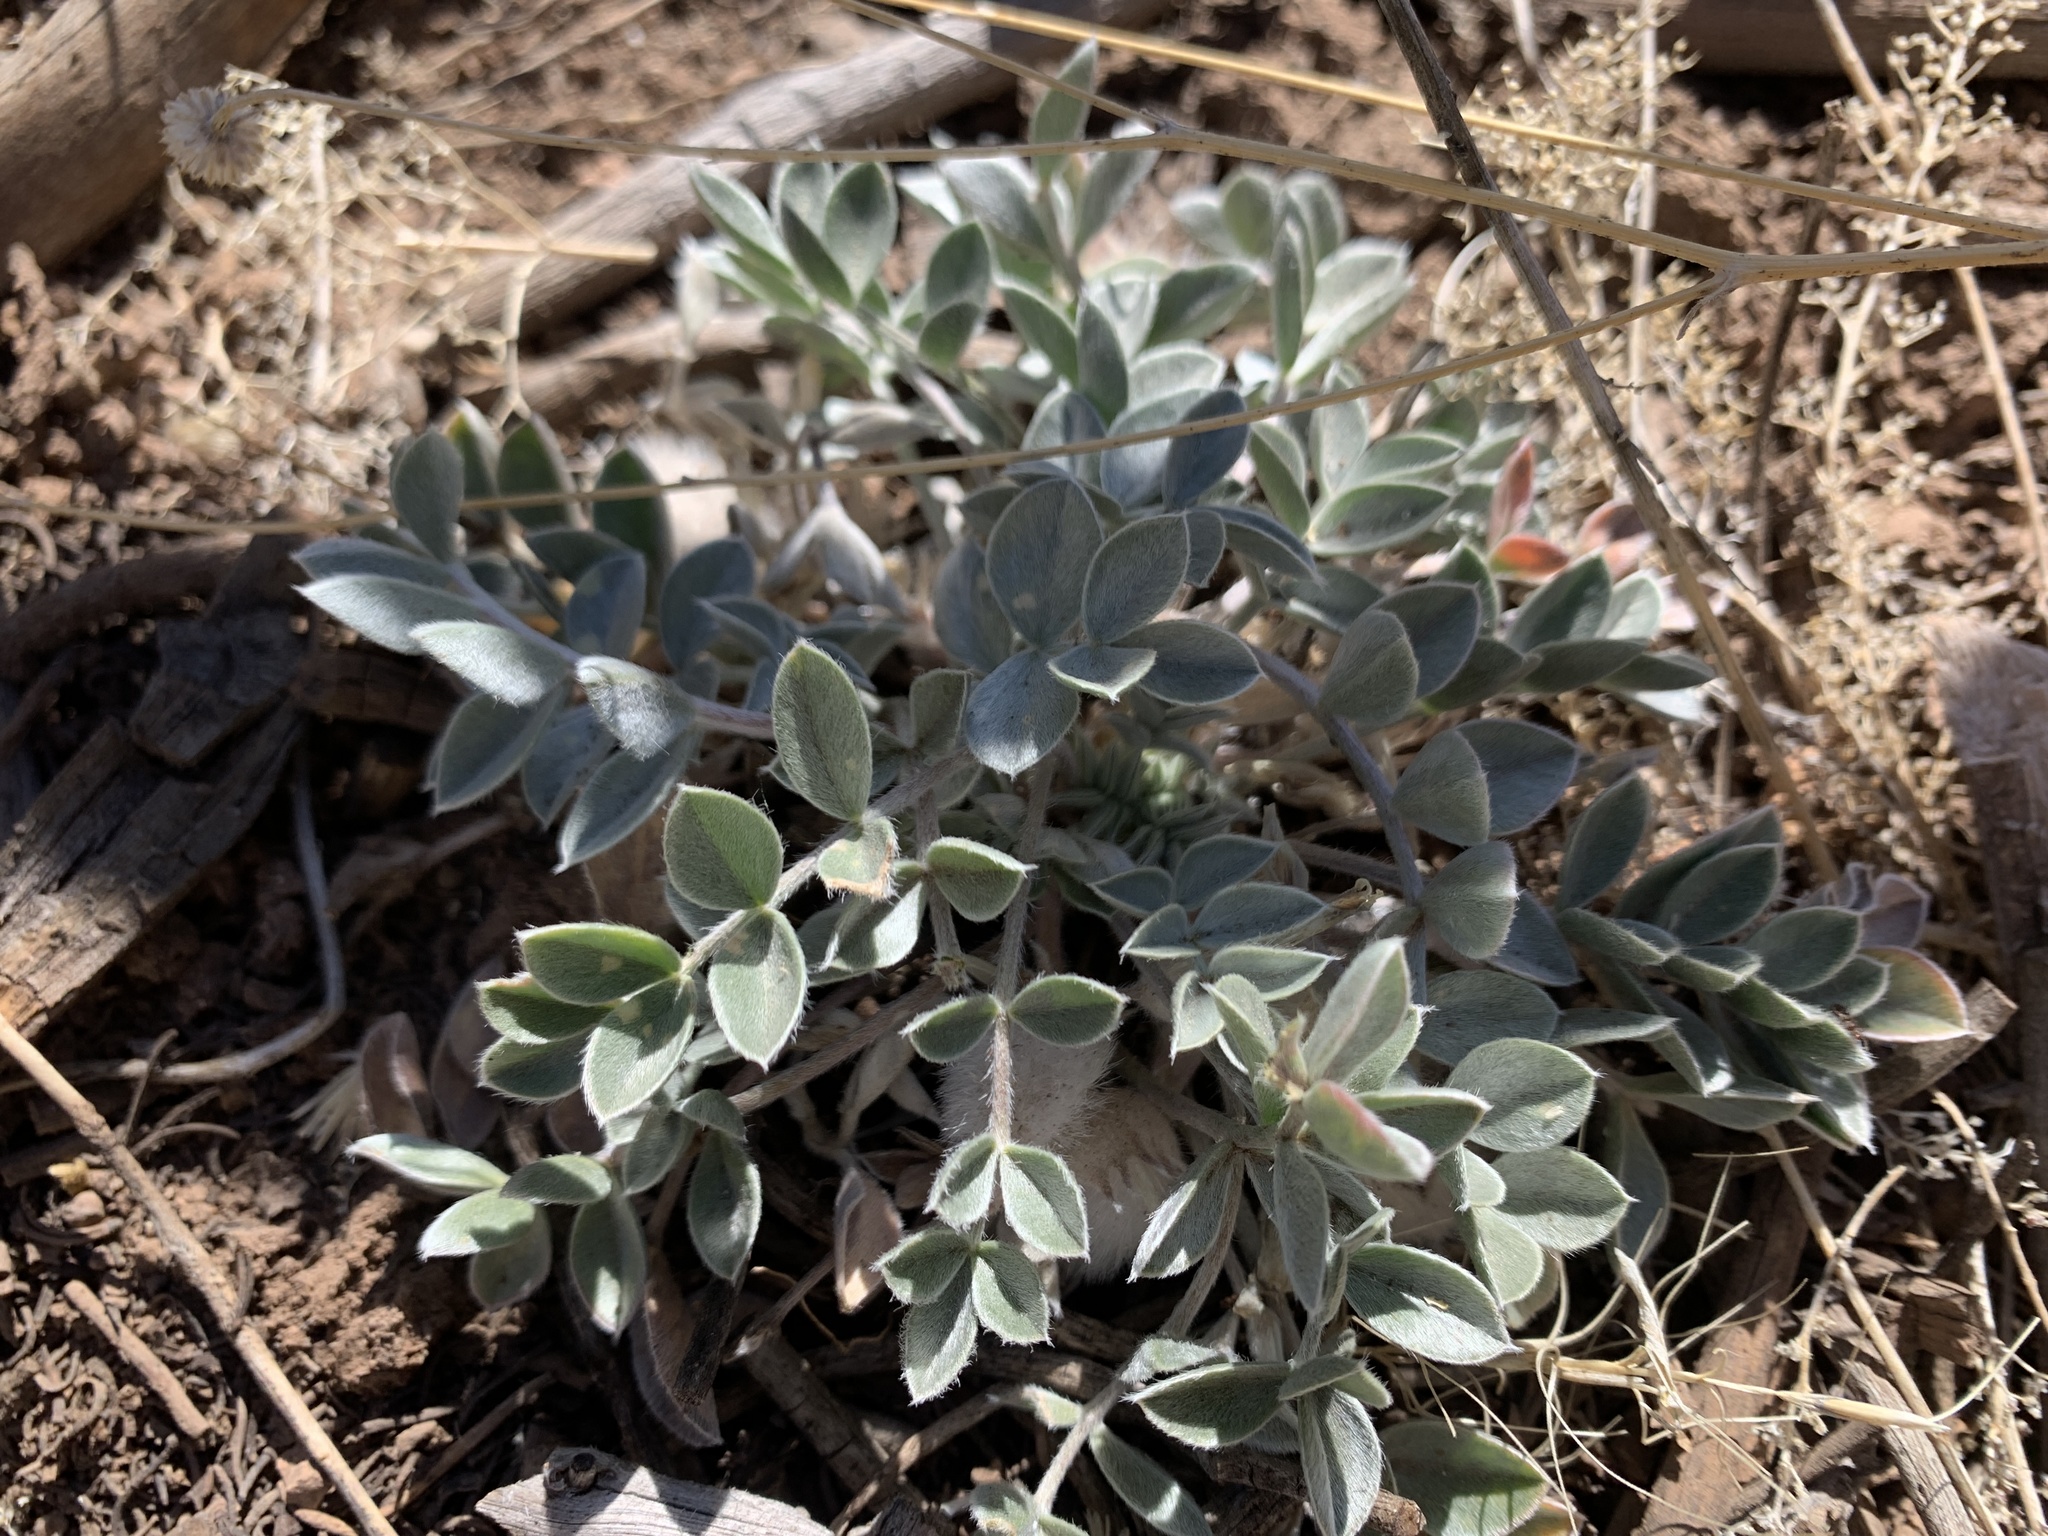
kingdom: Plantae
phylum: Tracheophyta
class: Magnoliopsida
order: Fabales
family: Fabaceae
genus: Astragalus
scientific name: Astragalus newberryi
